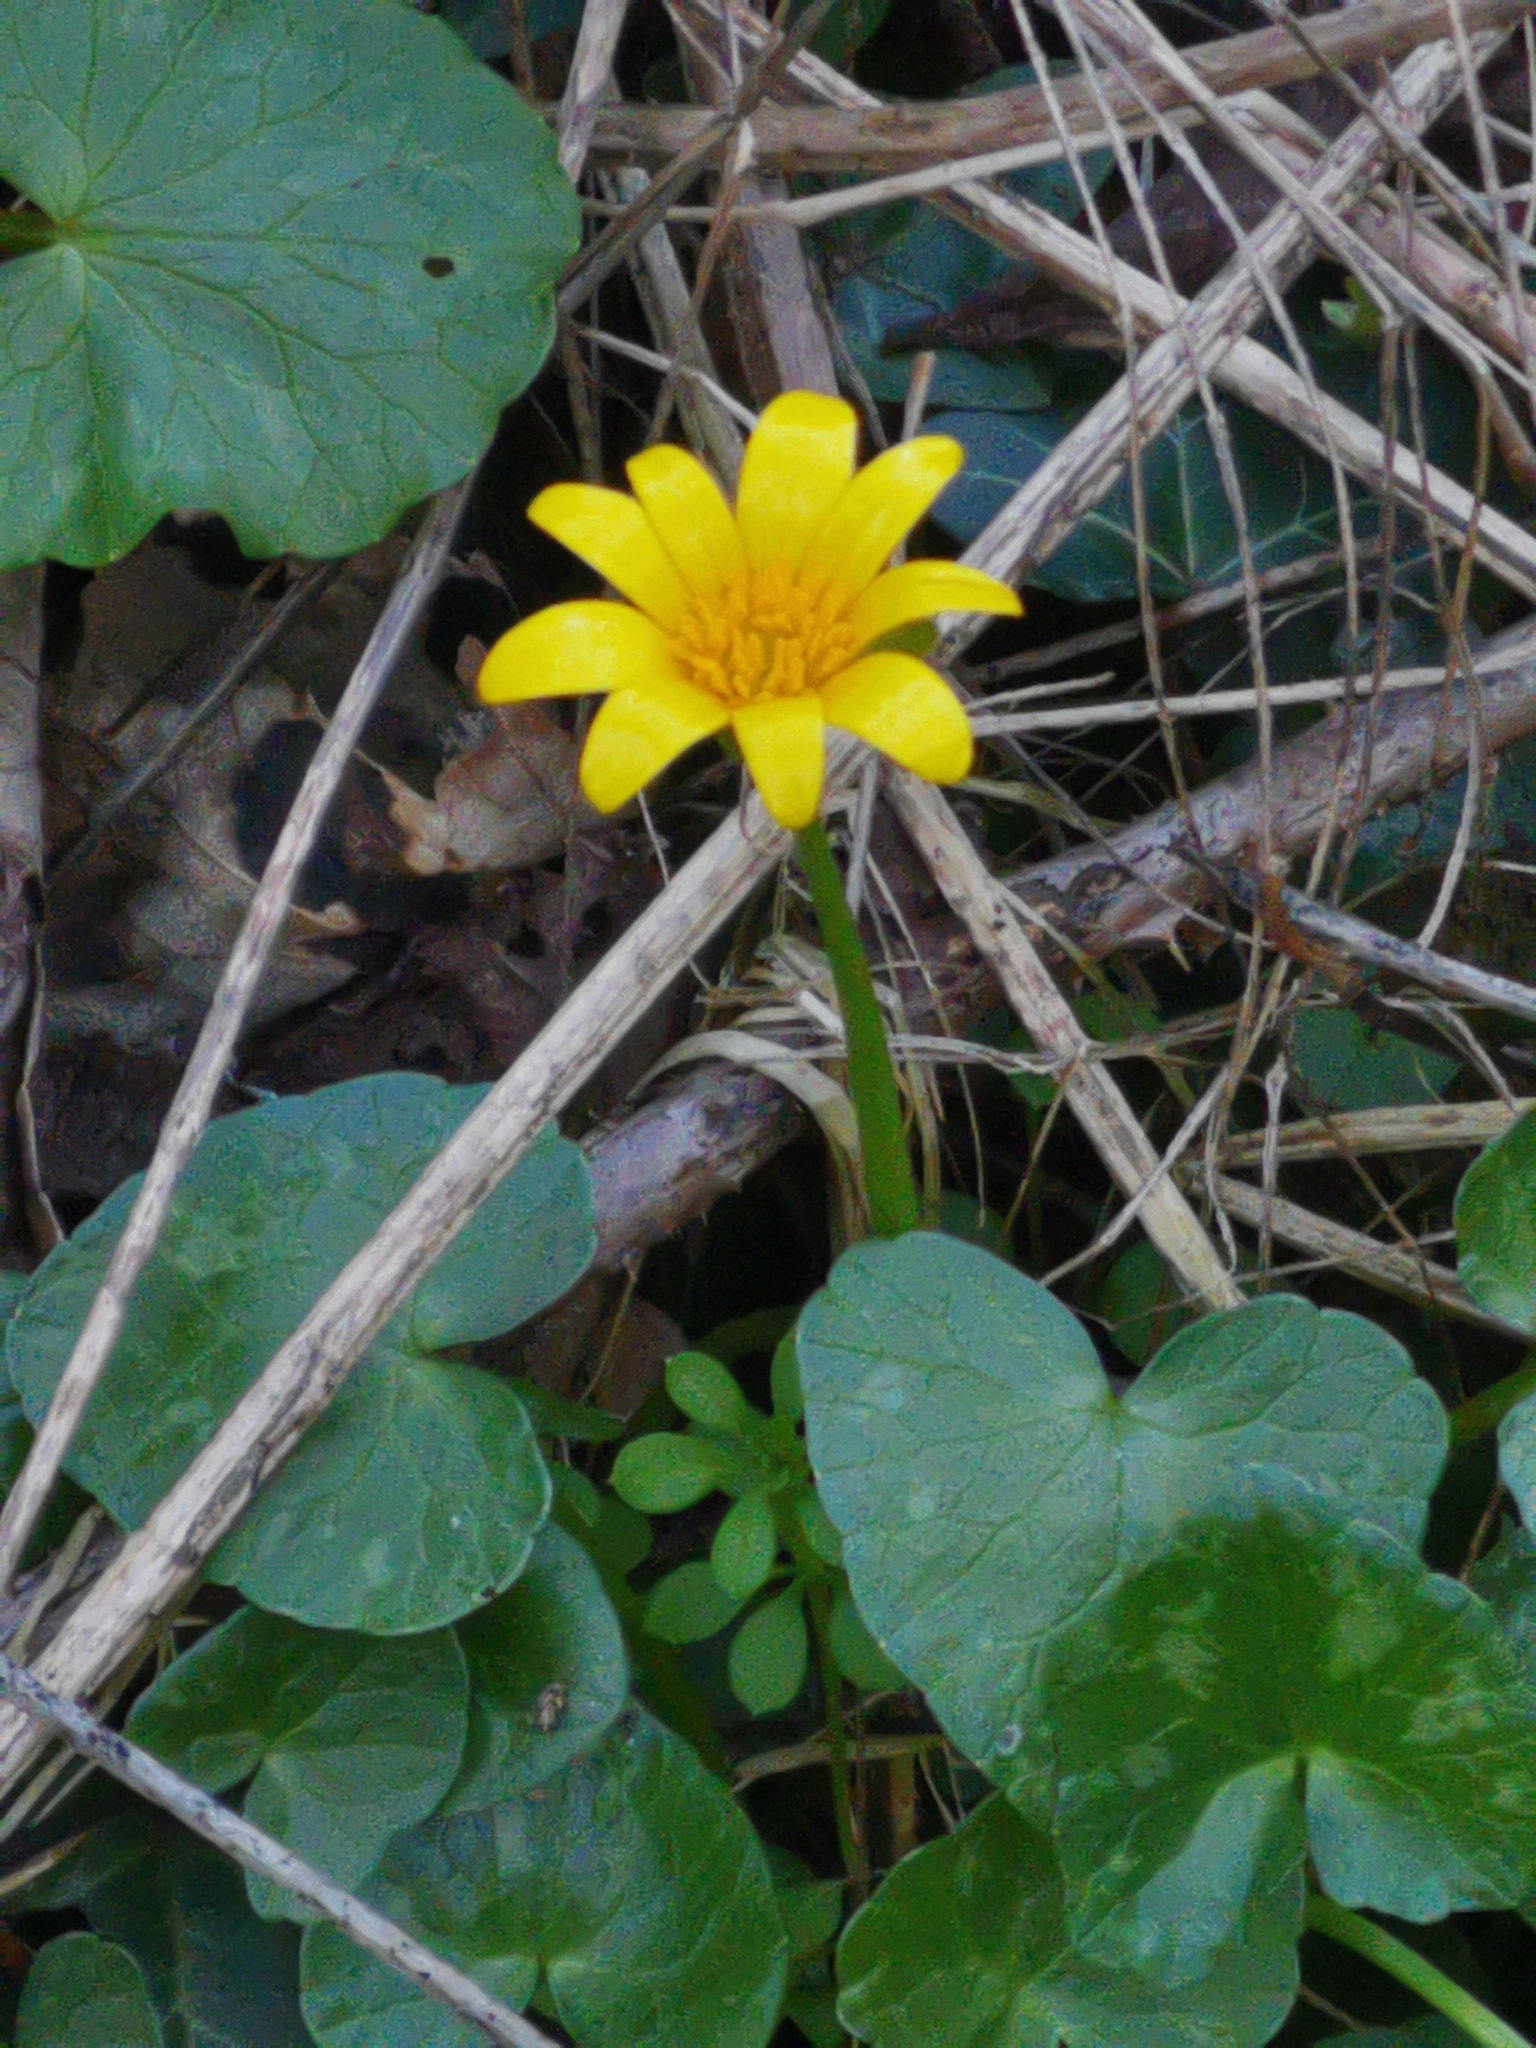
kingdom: Plantae
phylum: Tracheophyta
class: Magnoliopsida
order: Ranunculales
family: Ranunculaceae
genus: Ficaria
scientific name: Ficaria verna
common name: Lesser celandine
